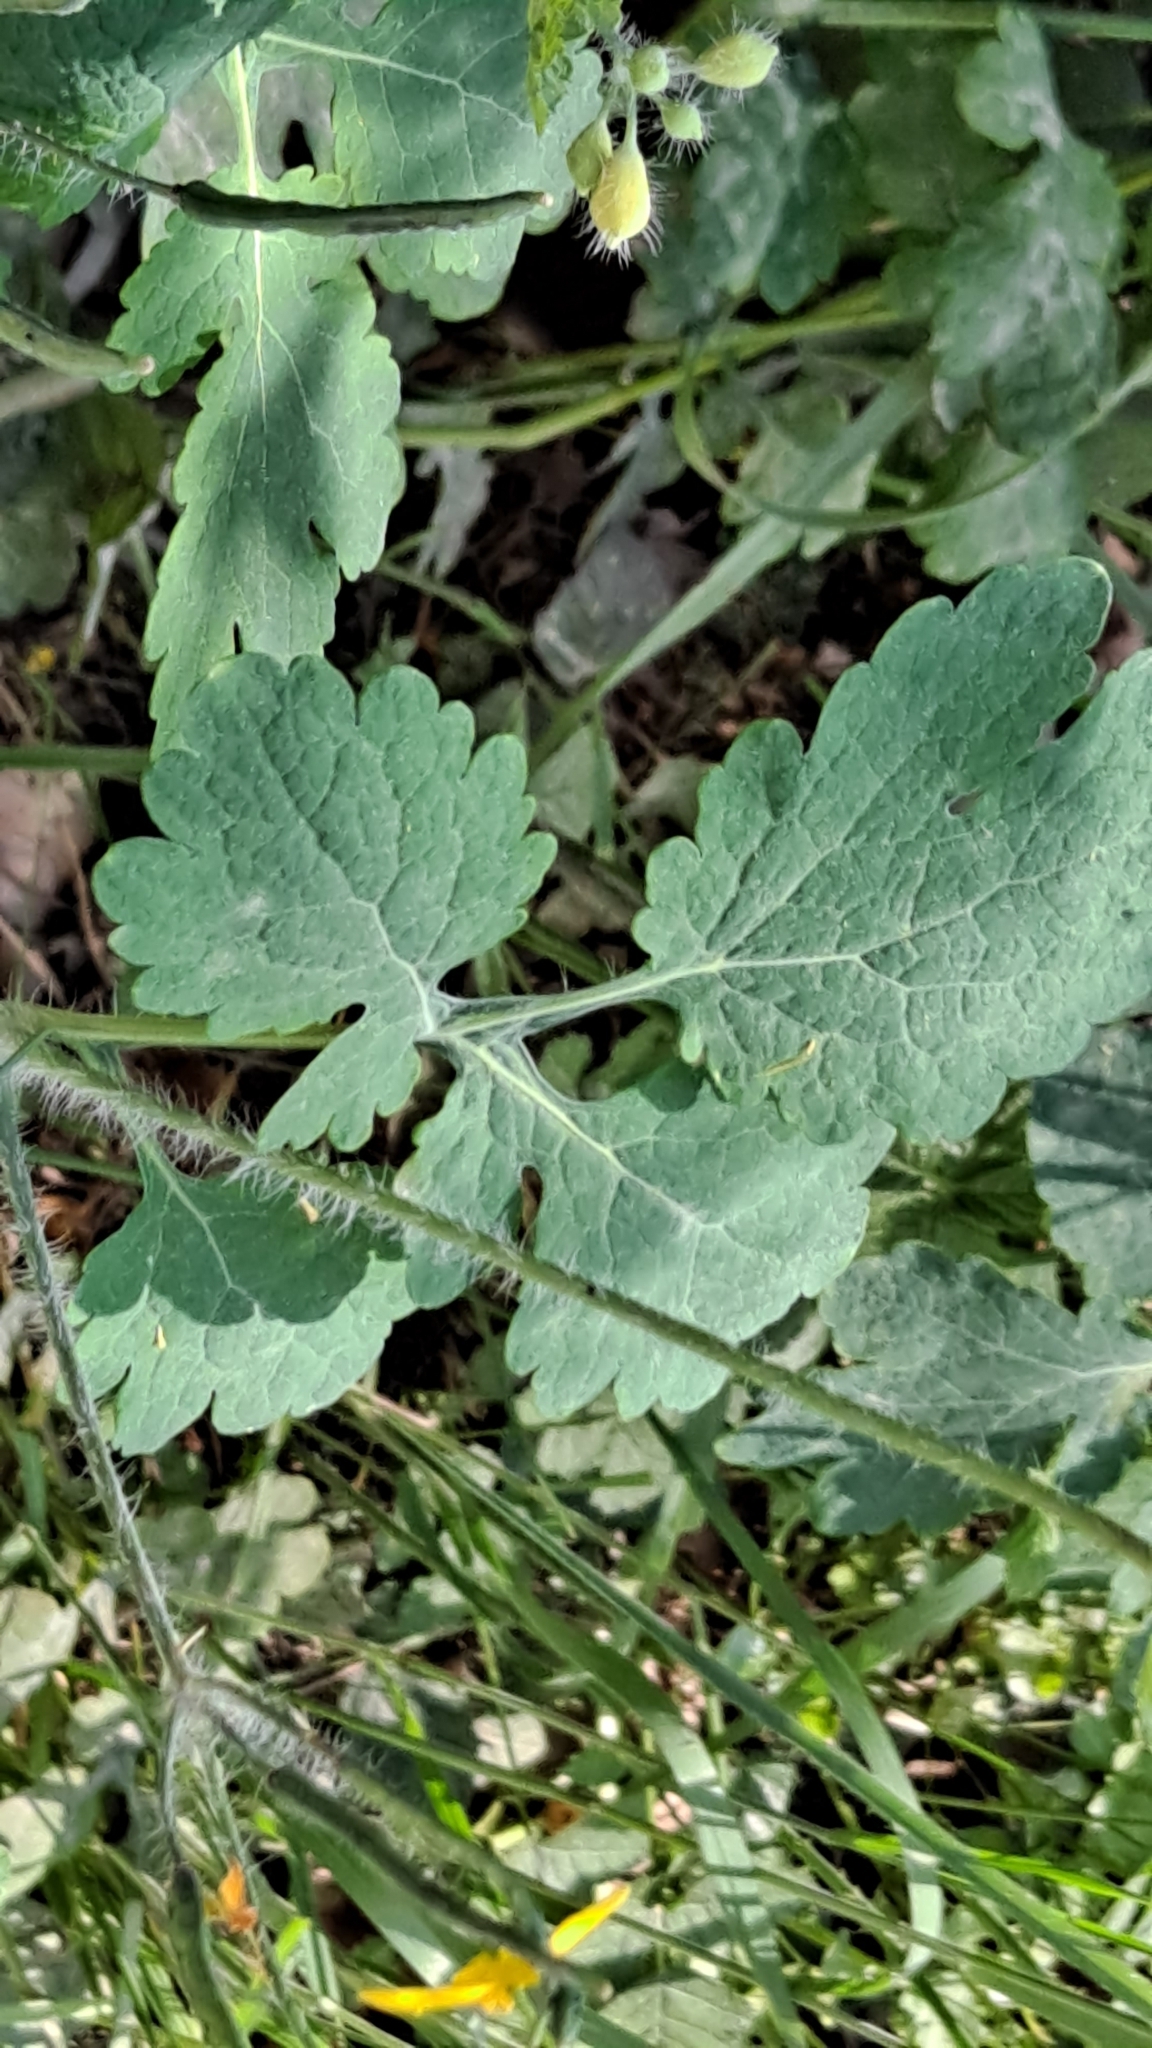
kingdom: Plantae
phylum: Tracheophyta
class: Magnoliopsida
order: Ranunculales
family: Papaveraceae
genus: Chelidonium
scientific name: Chelidonium majus
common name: Greater celandine
